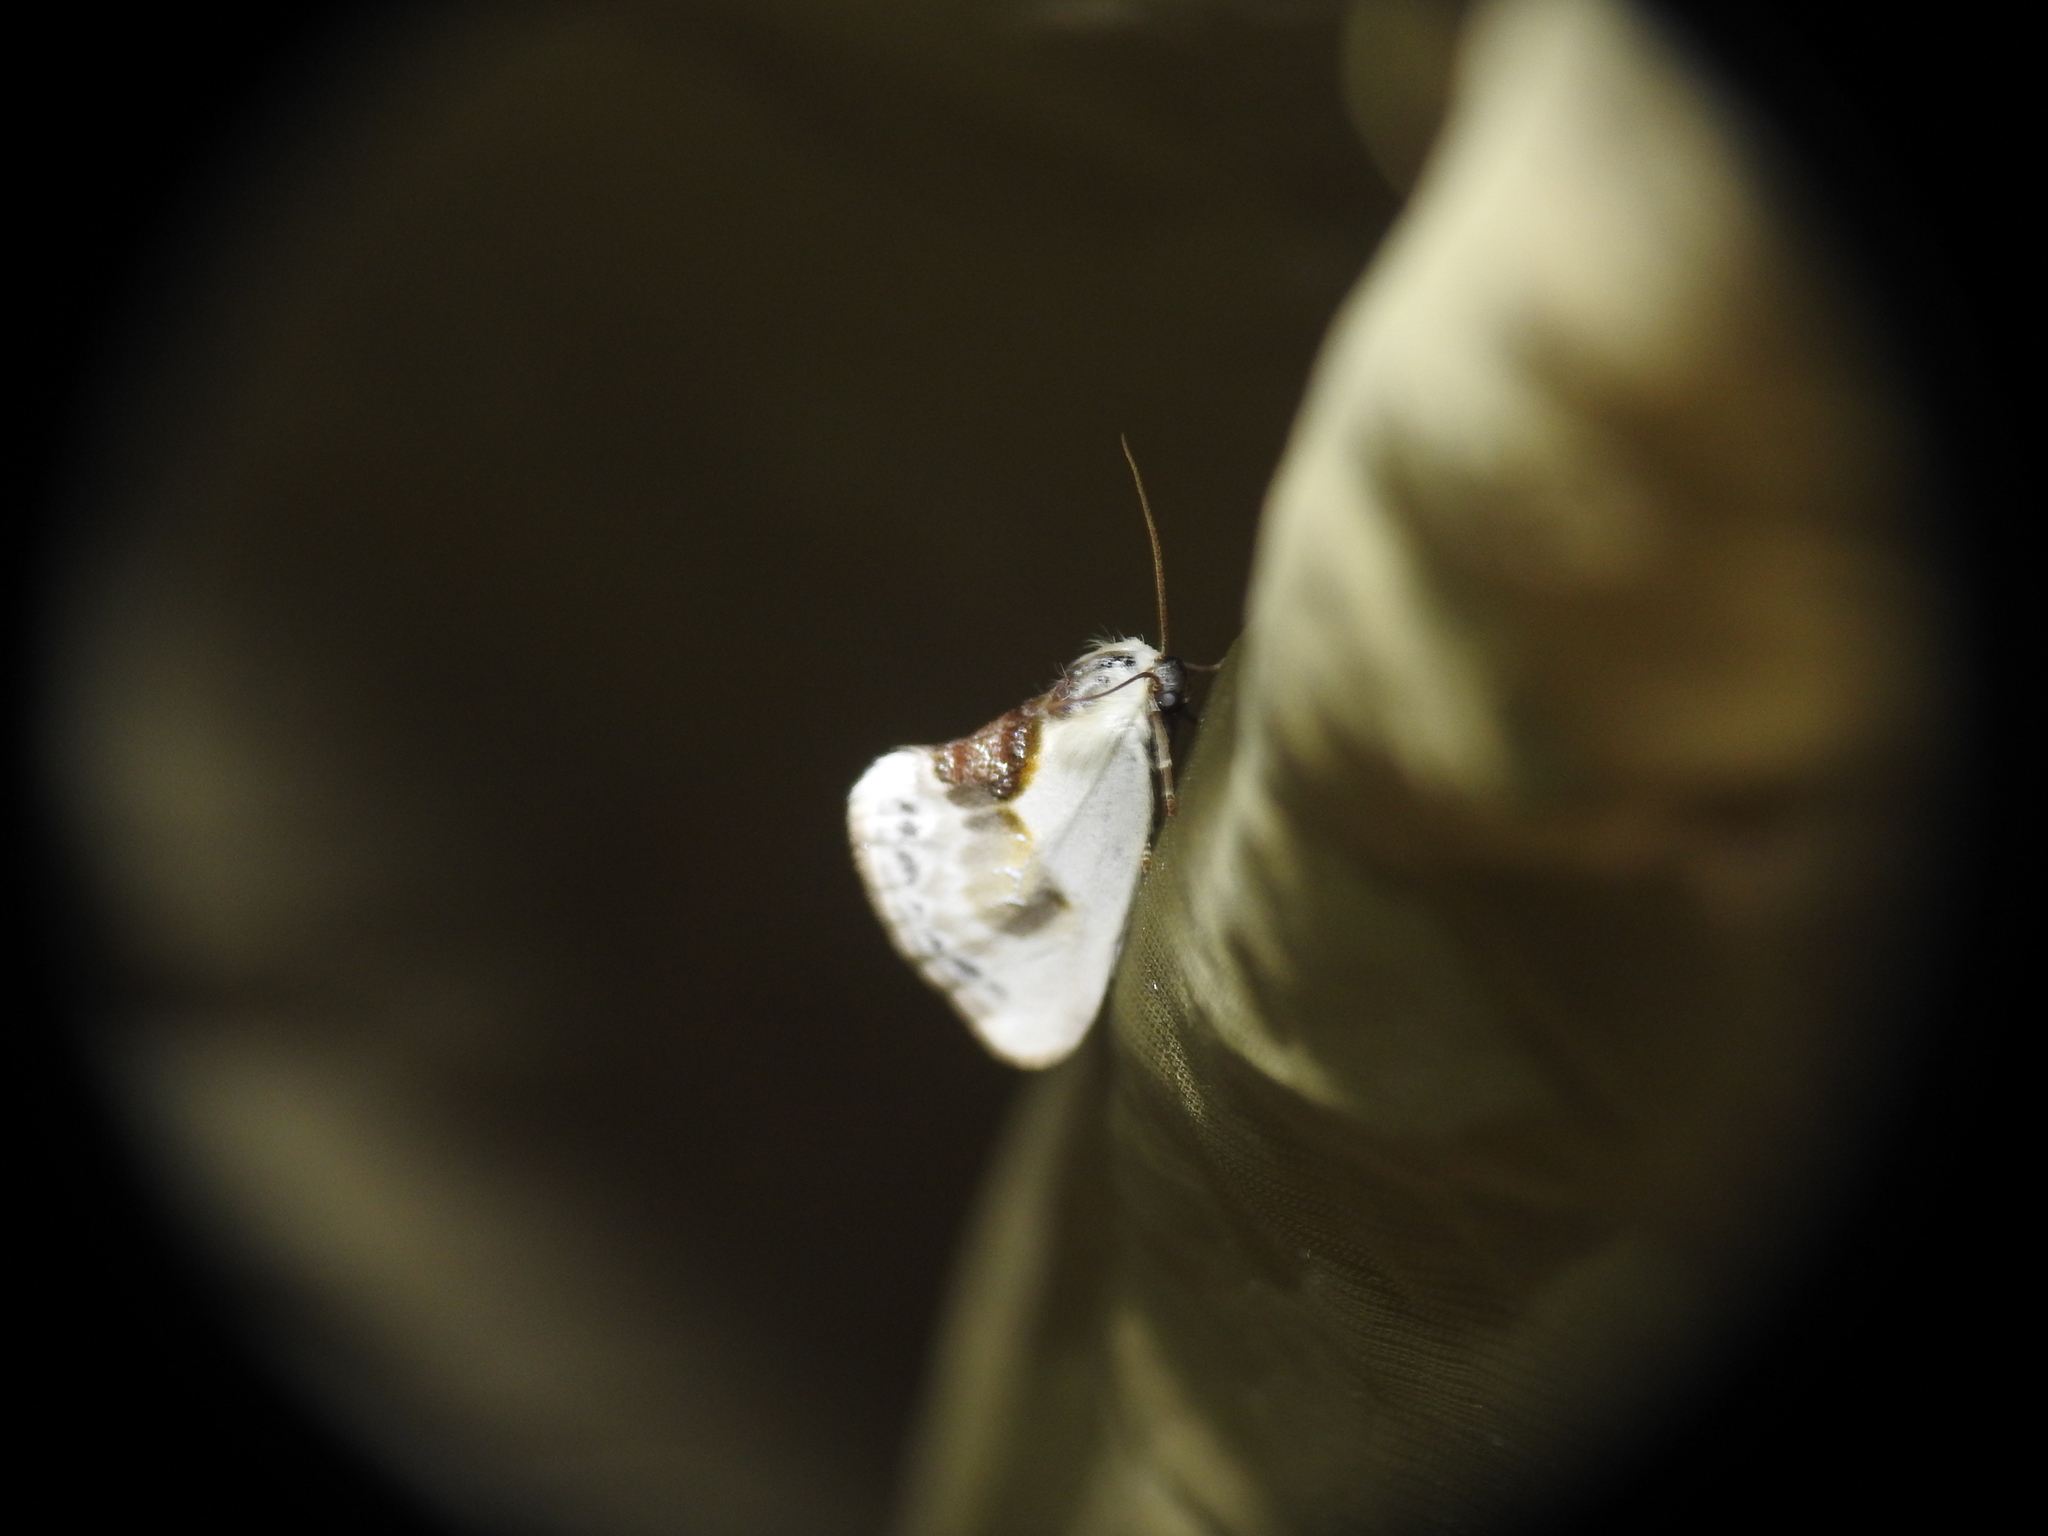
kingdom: Animalia
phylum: Arthropoda
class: Insecta
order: Lepidoptera
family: Drepanidae
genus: Cilix
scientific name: Cilix glaucata
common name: Chinese character
